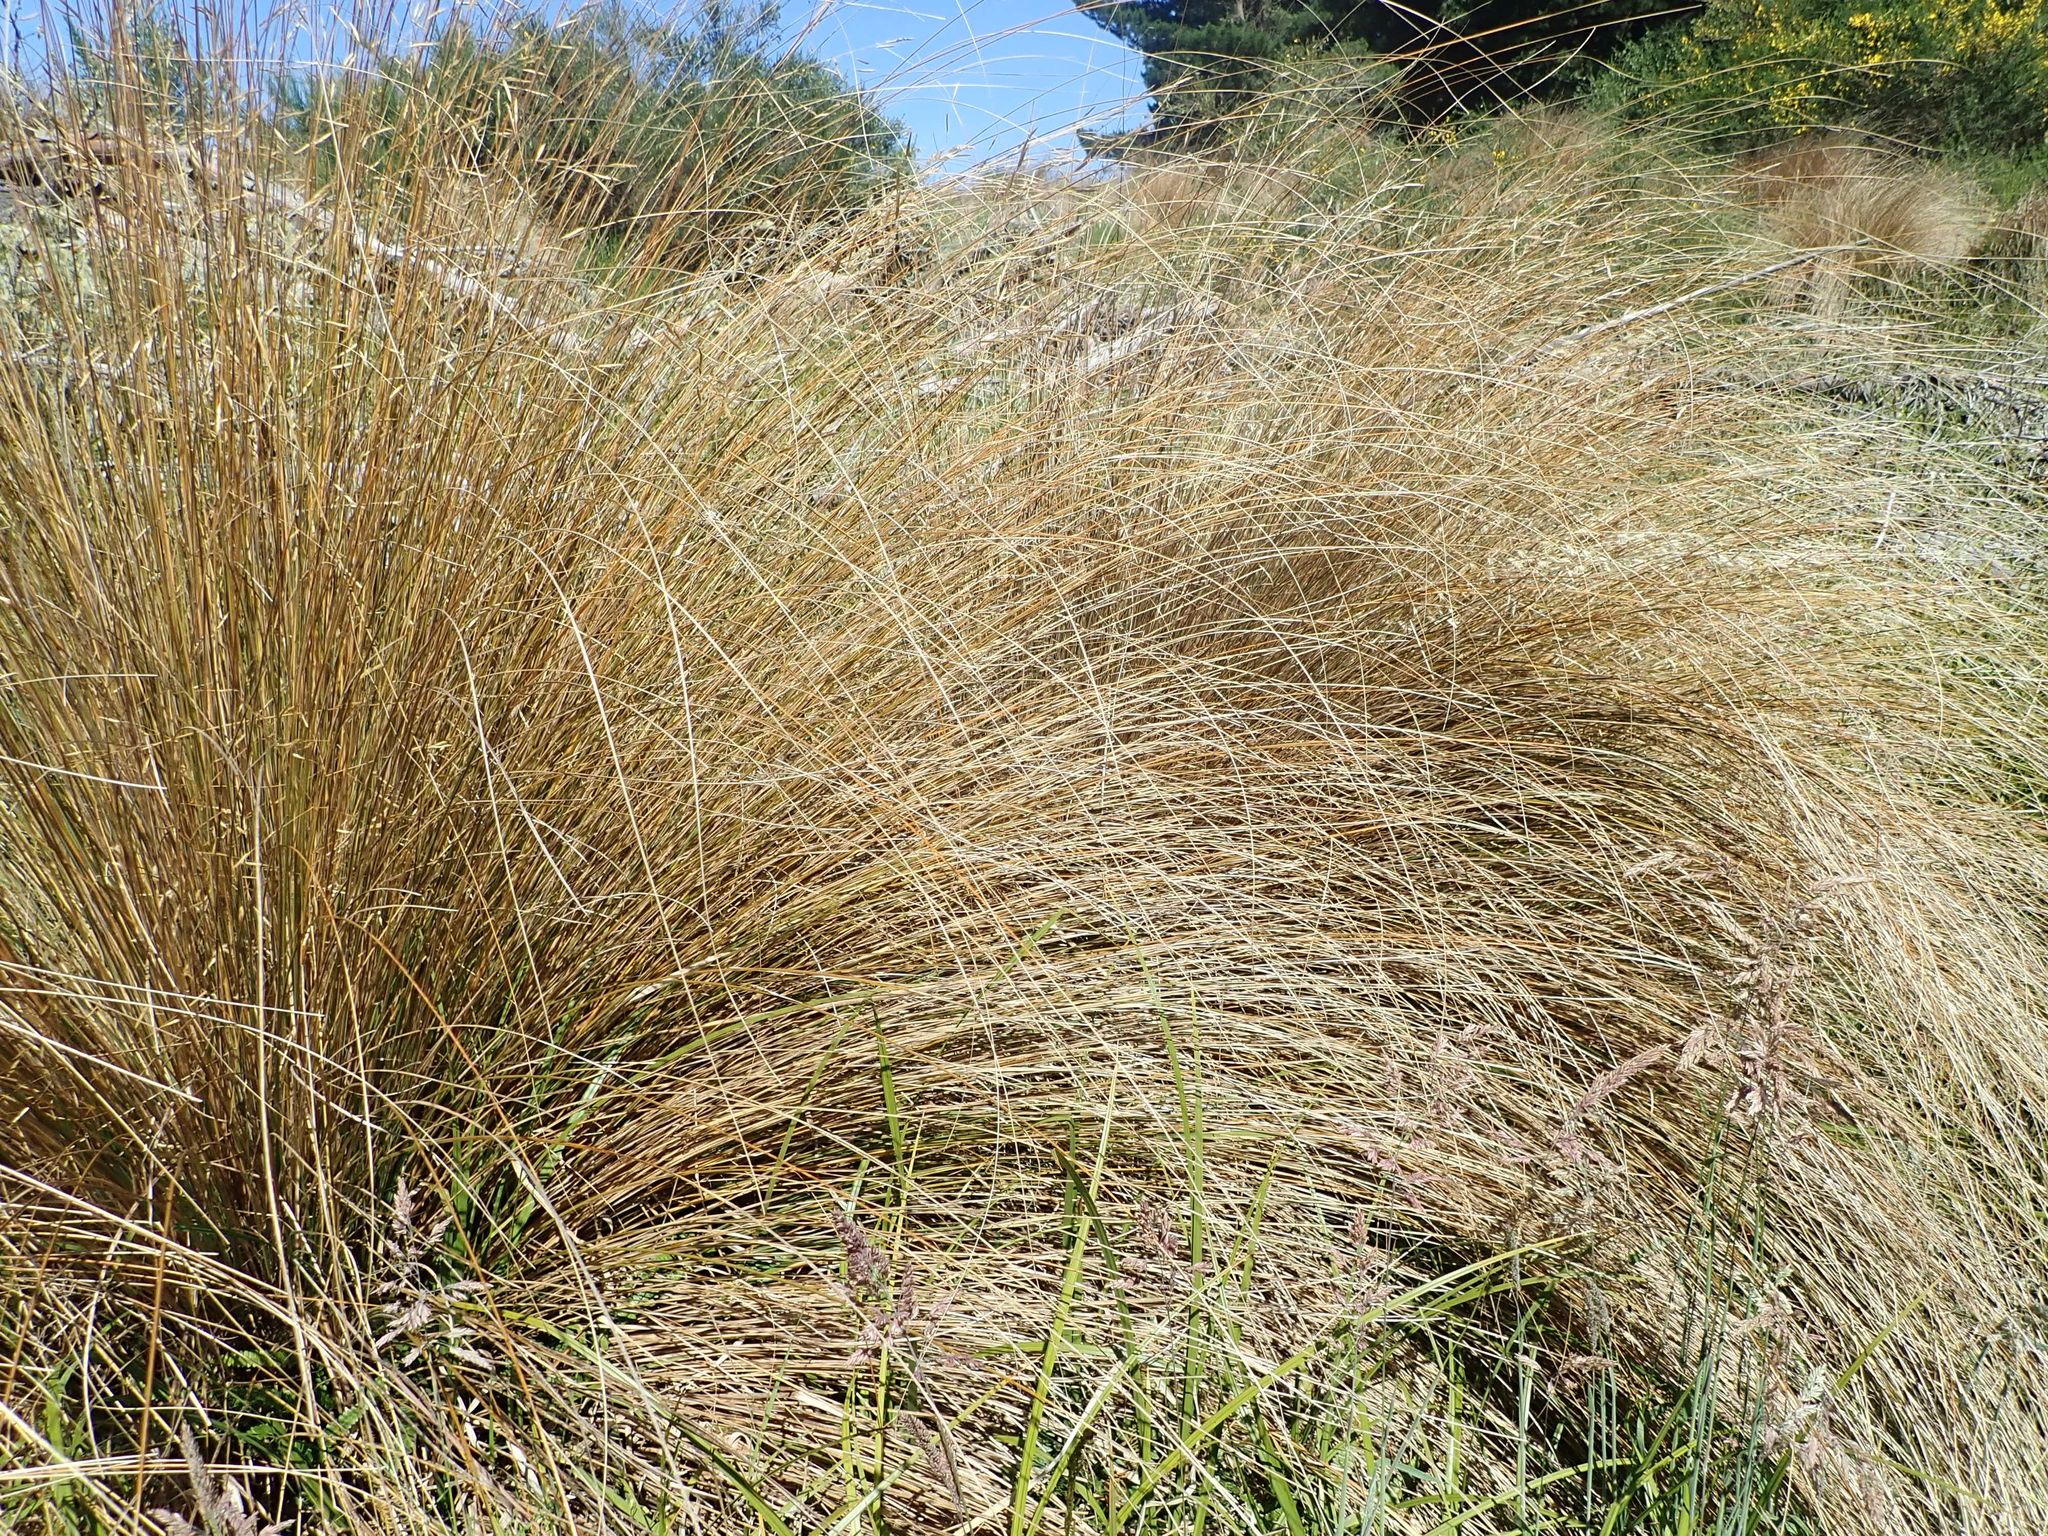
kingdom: Plantae
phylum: Tracheophyta
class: Liliopsida
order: Poales
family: Poaceae
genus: Chionochloa
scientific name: Chionochloa rubra
